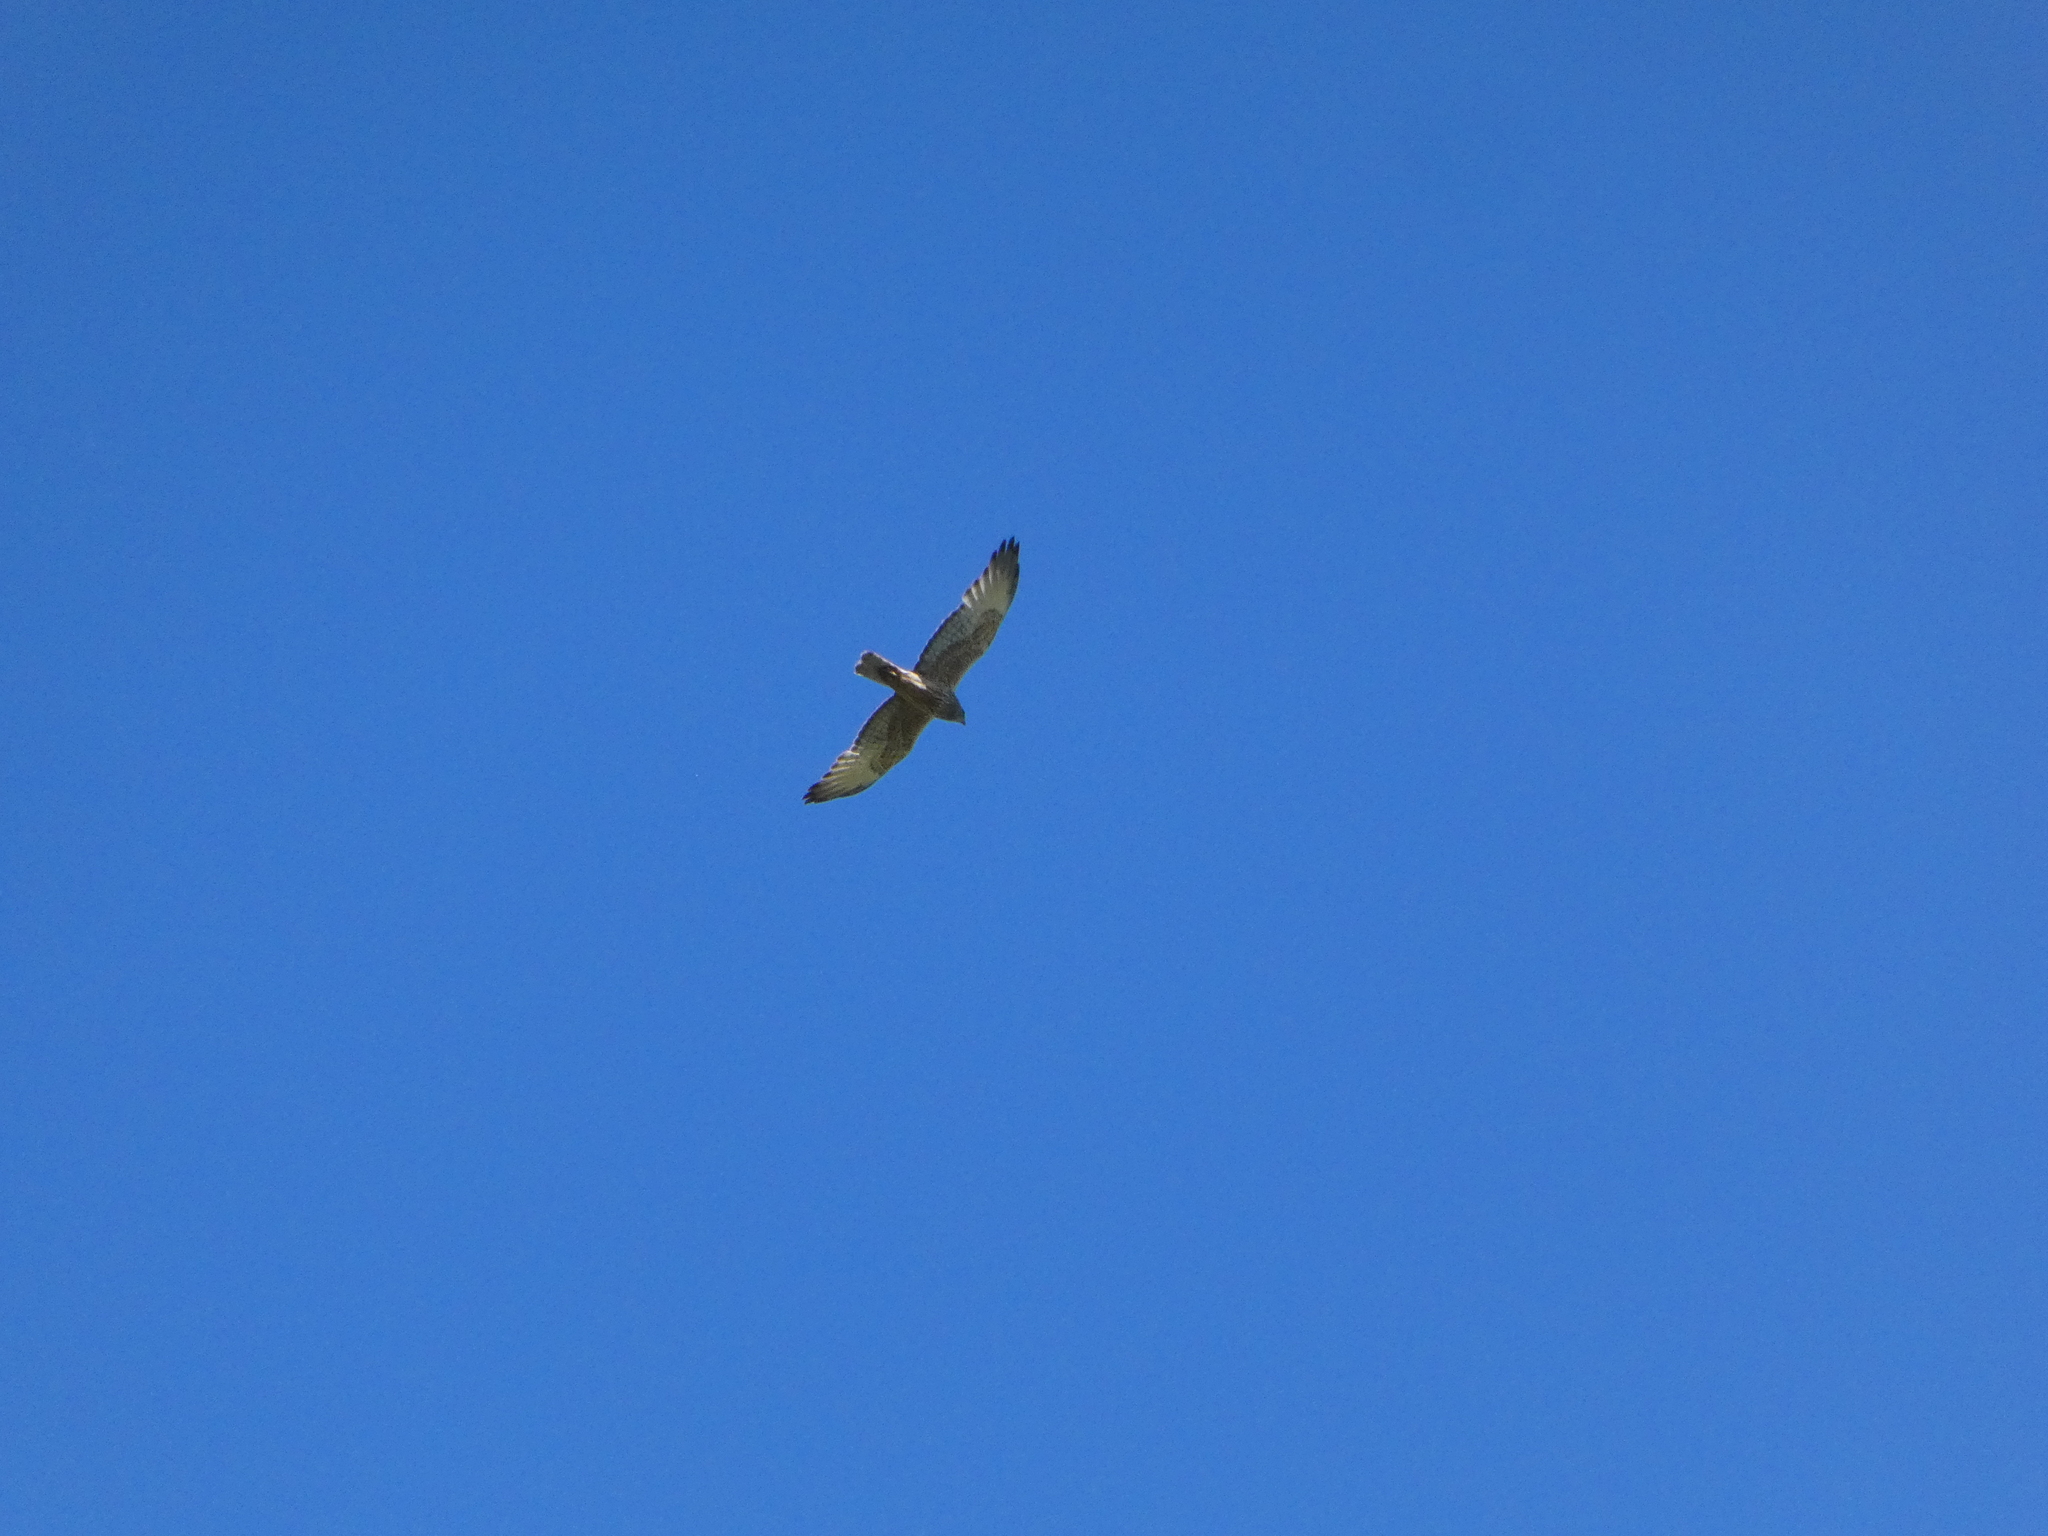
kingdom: Animalia
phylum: Chordata
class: Aves
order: Accipitriformes
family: Accipitridae
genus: Circus
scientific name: Circus approximans
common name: Swamp harrier
